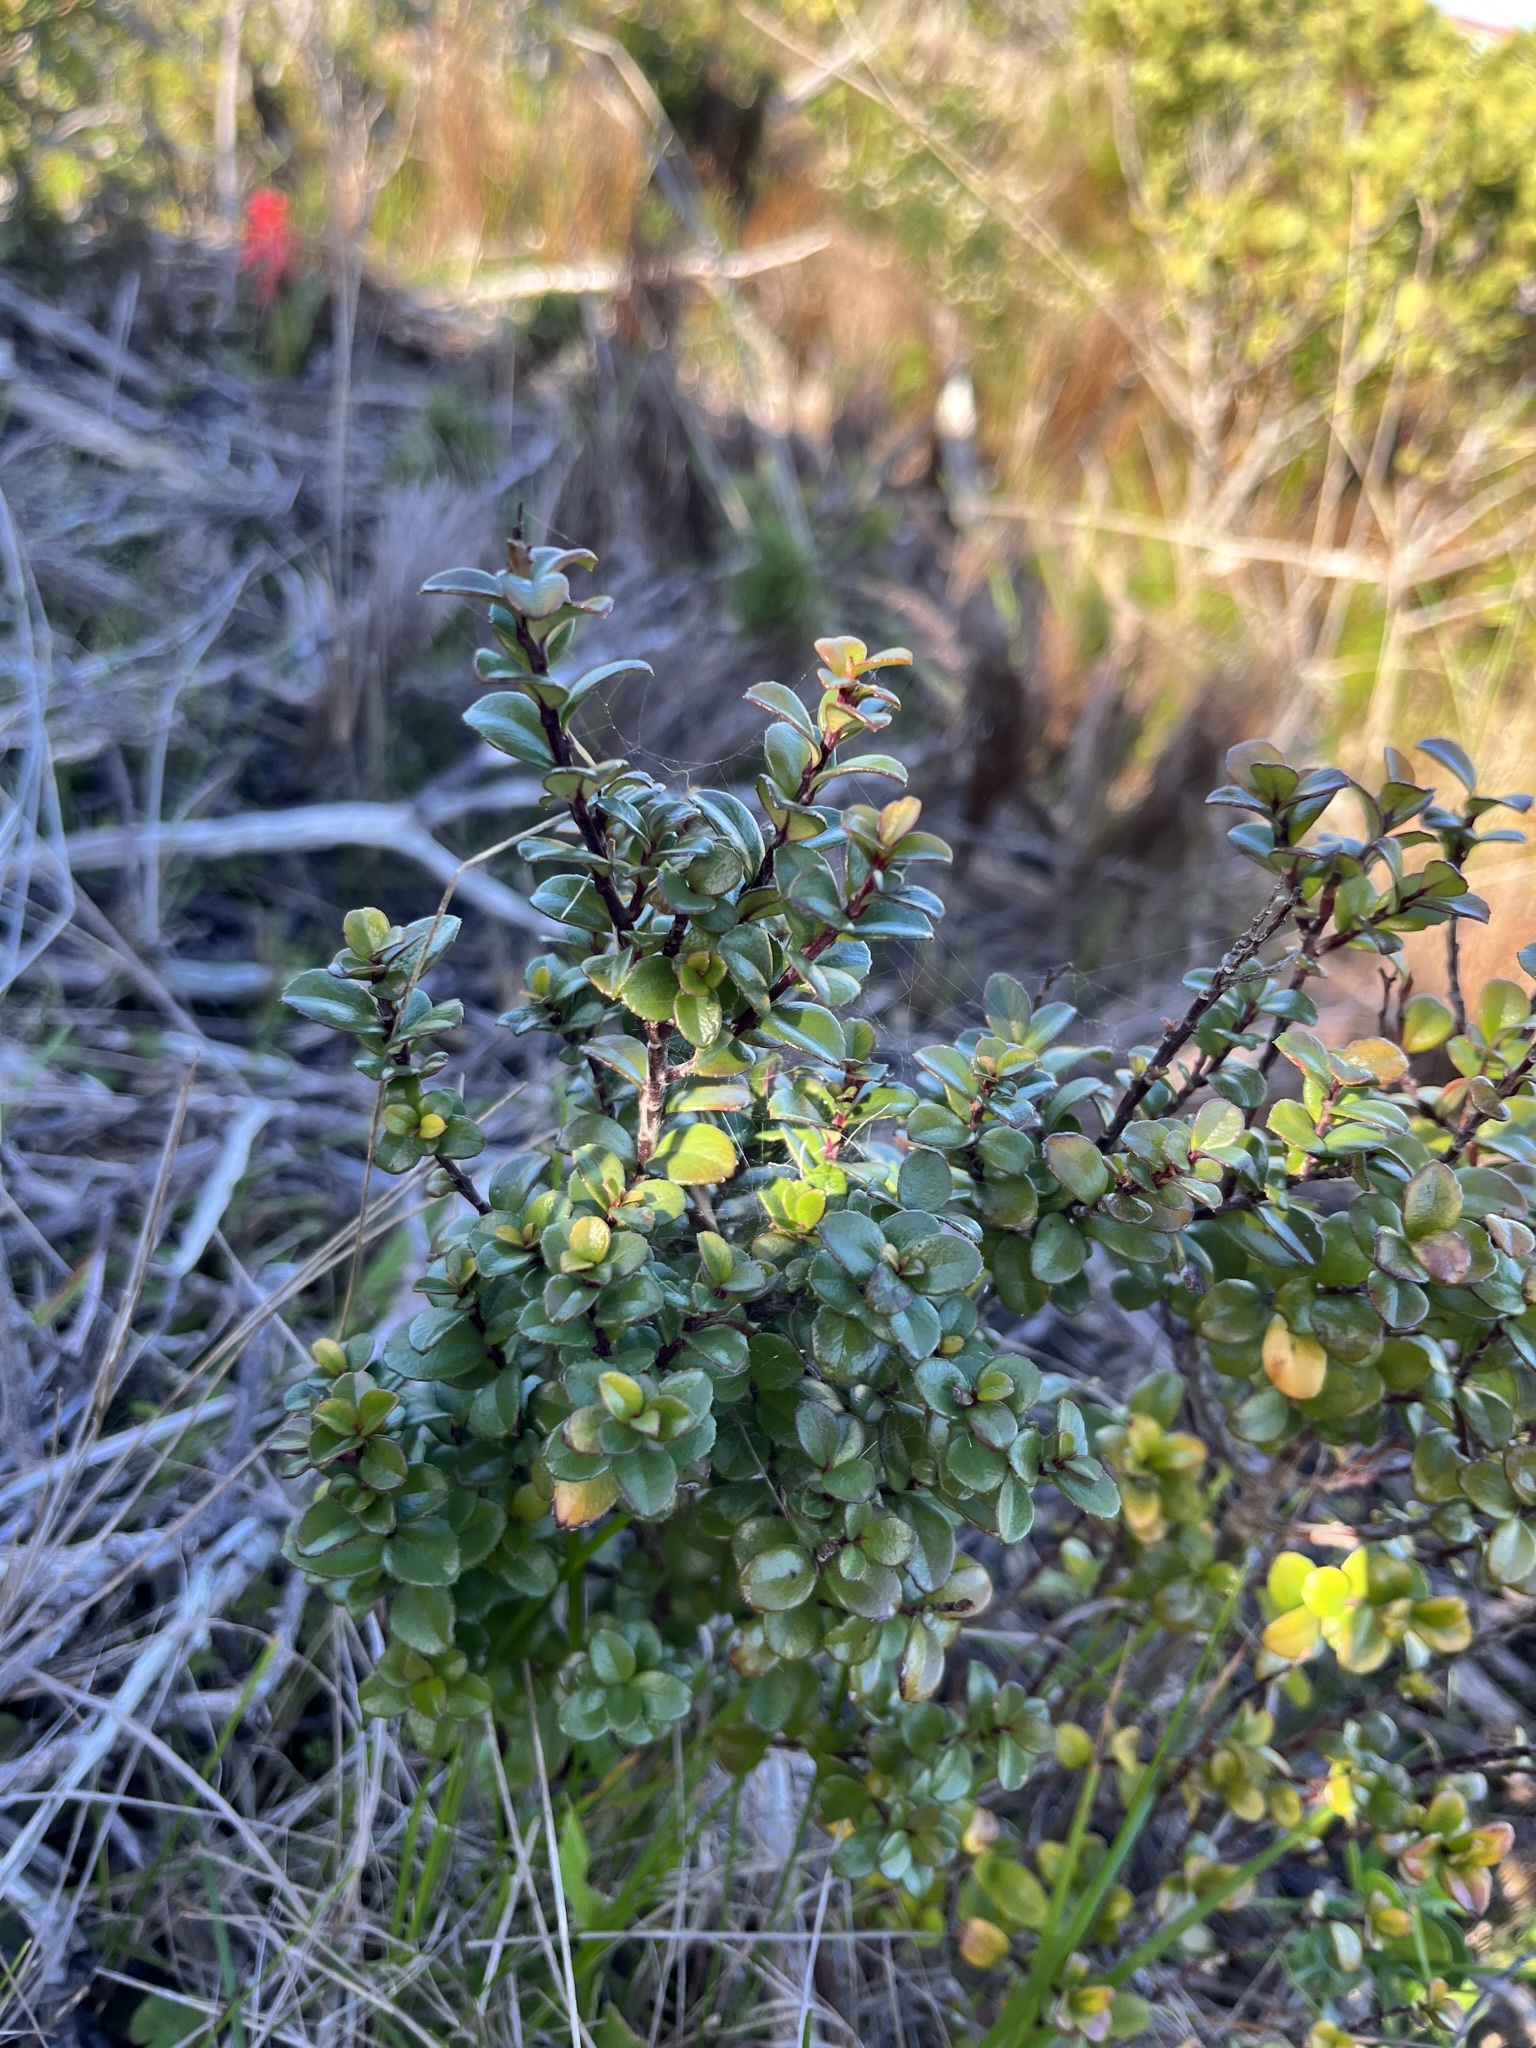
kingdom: Plantae
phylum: Tracheophyta
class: Magnoliopsida
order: Ericales
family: Primulaceae
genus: Myrsine
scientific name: Myrsine africana
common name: African-boxwood
